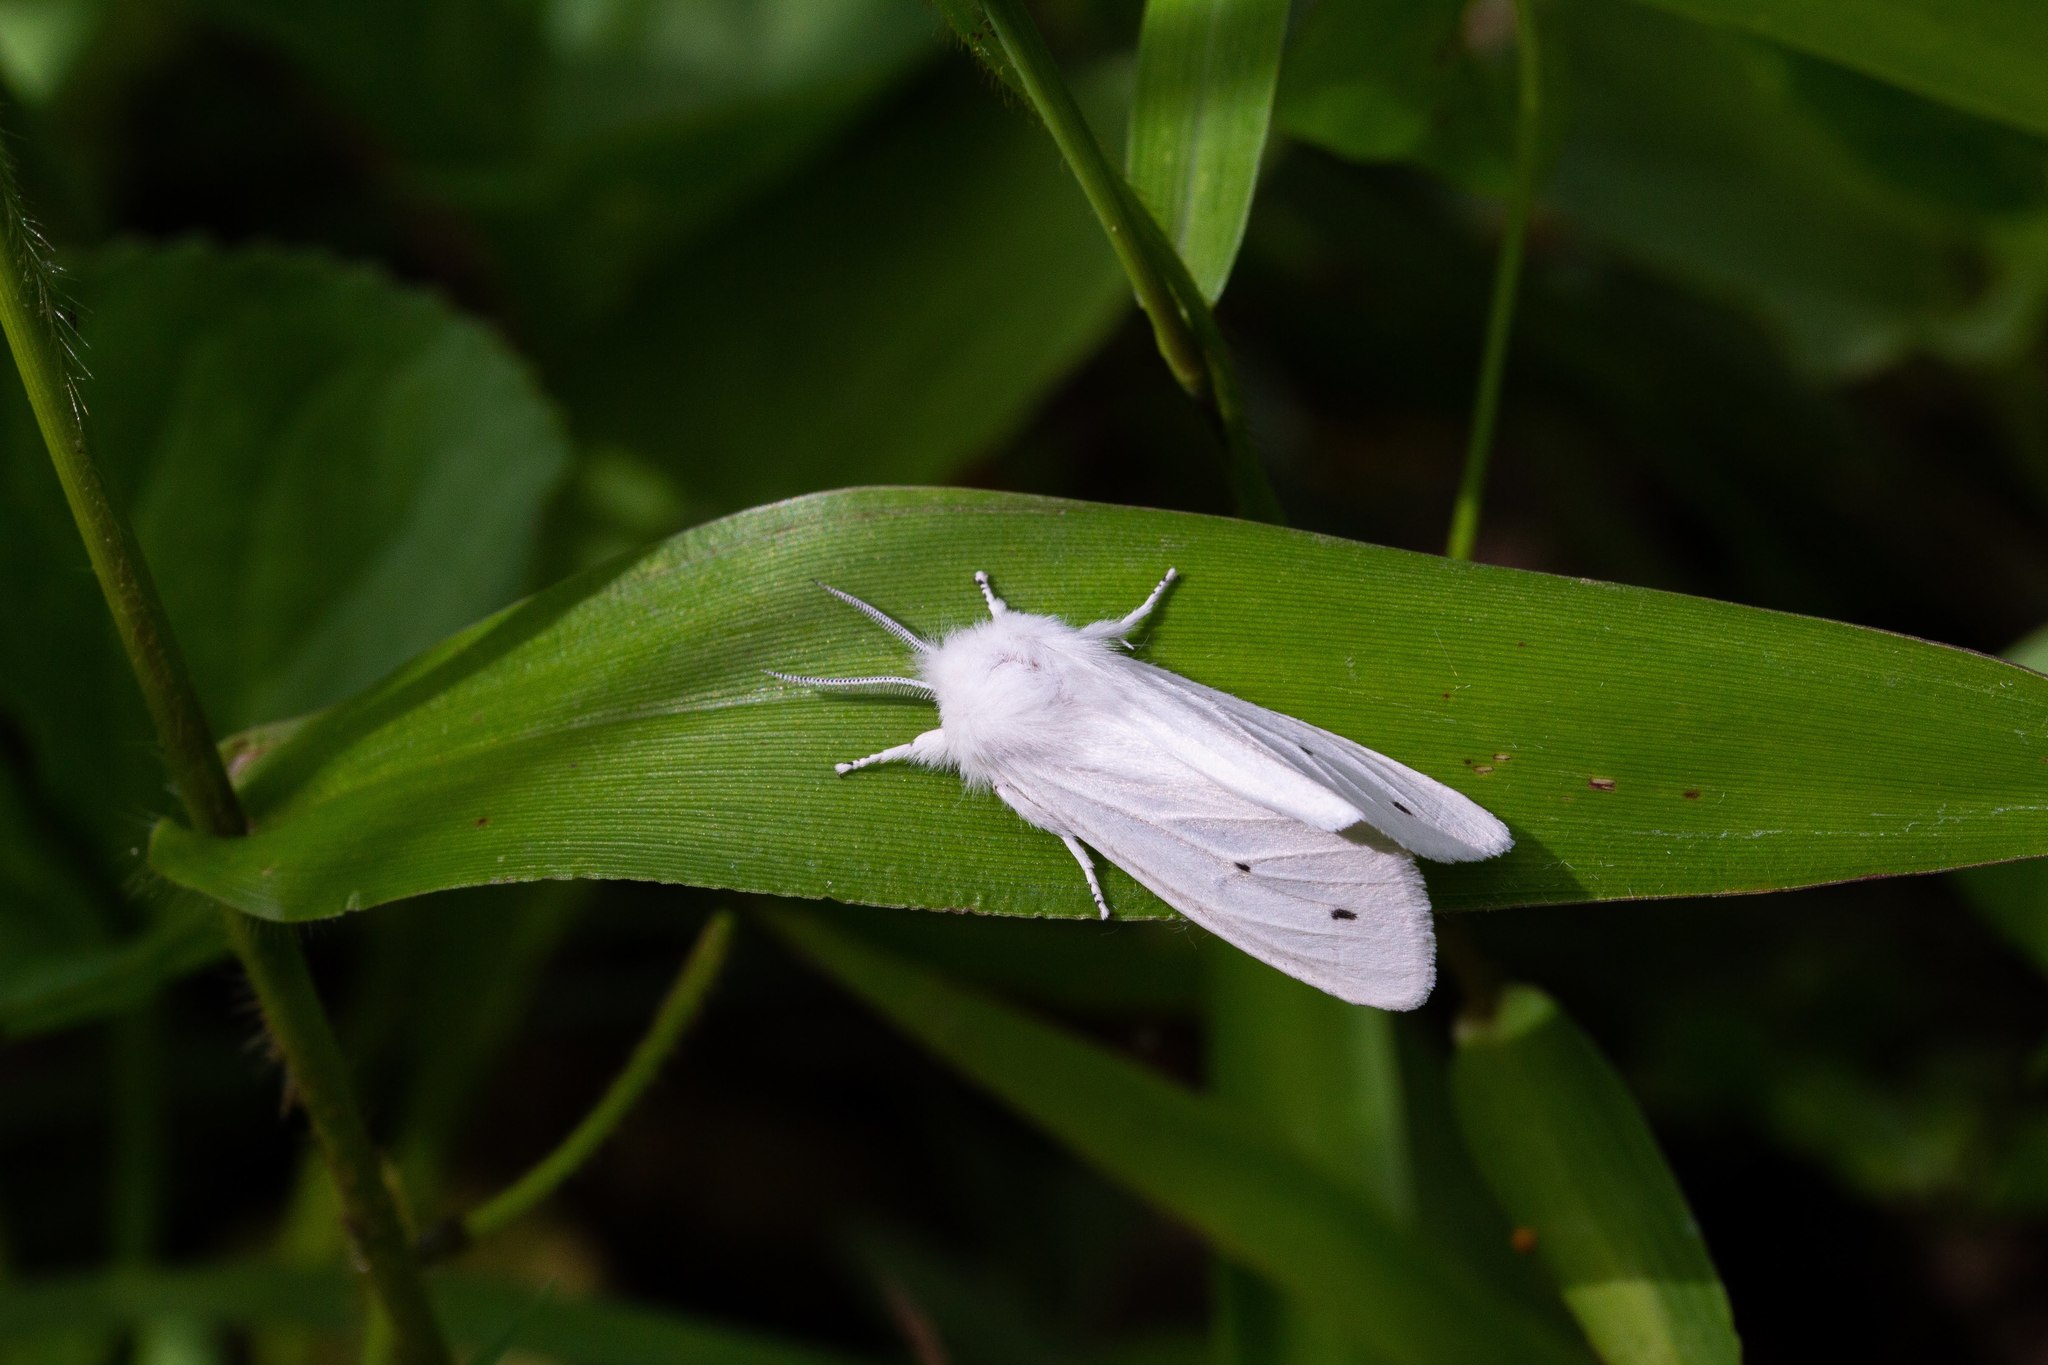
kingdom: Animalia
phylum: Arthropoda
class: Insecta
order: Lepidoptera
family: Erebidae
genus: Spilosoma
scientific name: Spilosoma virginica
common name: Virginia tiger moth
